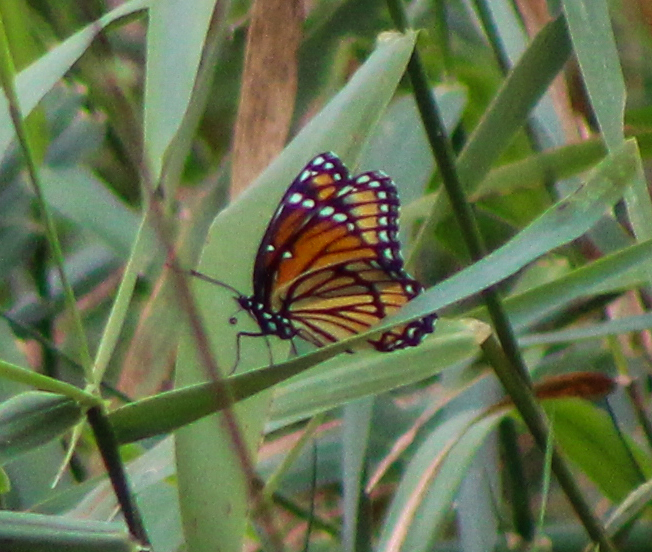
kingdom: Animalia
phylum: Arthropoda
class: Insecta
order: Lepidoptera
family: Nymphalidae
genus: Limenitis
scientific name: Limenitis archippus
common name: Viceroy
